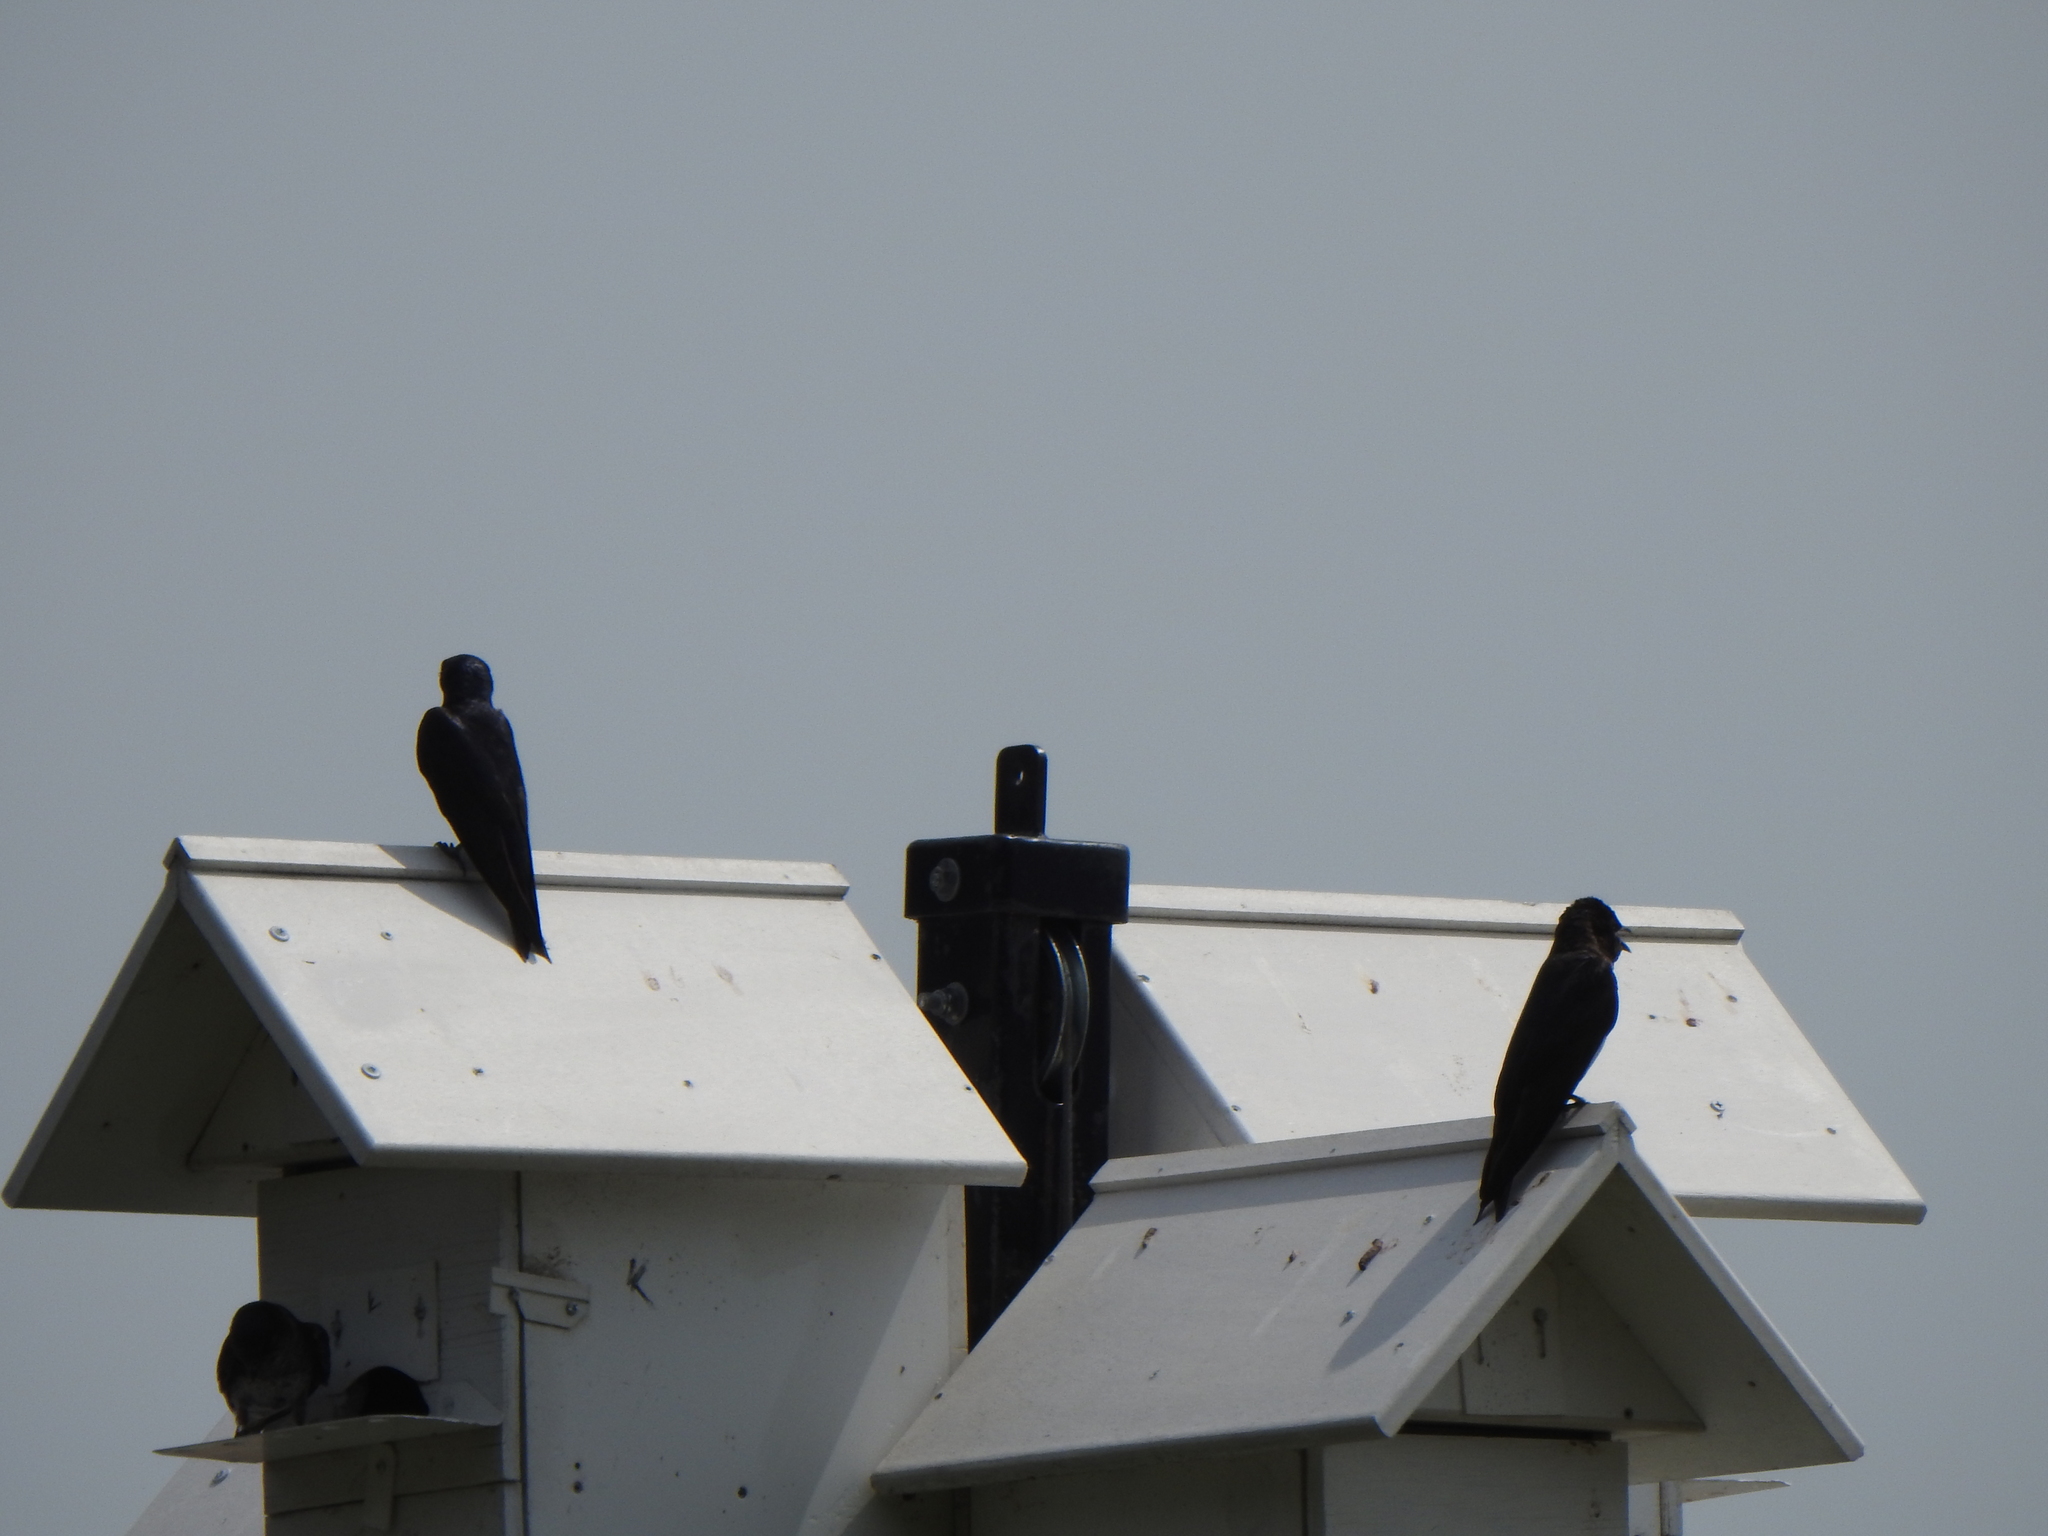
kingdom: Animalia
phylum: Chordata
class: Aves
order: Passeriformes
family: Hirundinidae
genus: Progne
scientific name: Progne subis
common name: Purple martin
